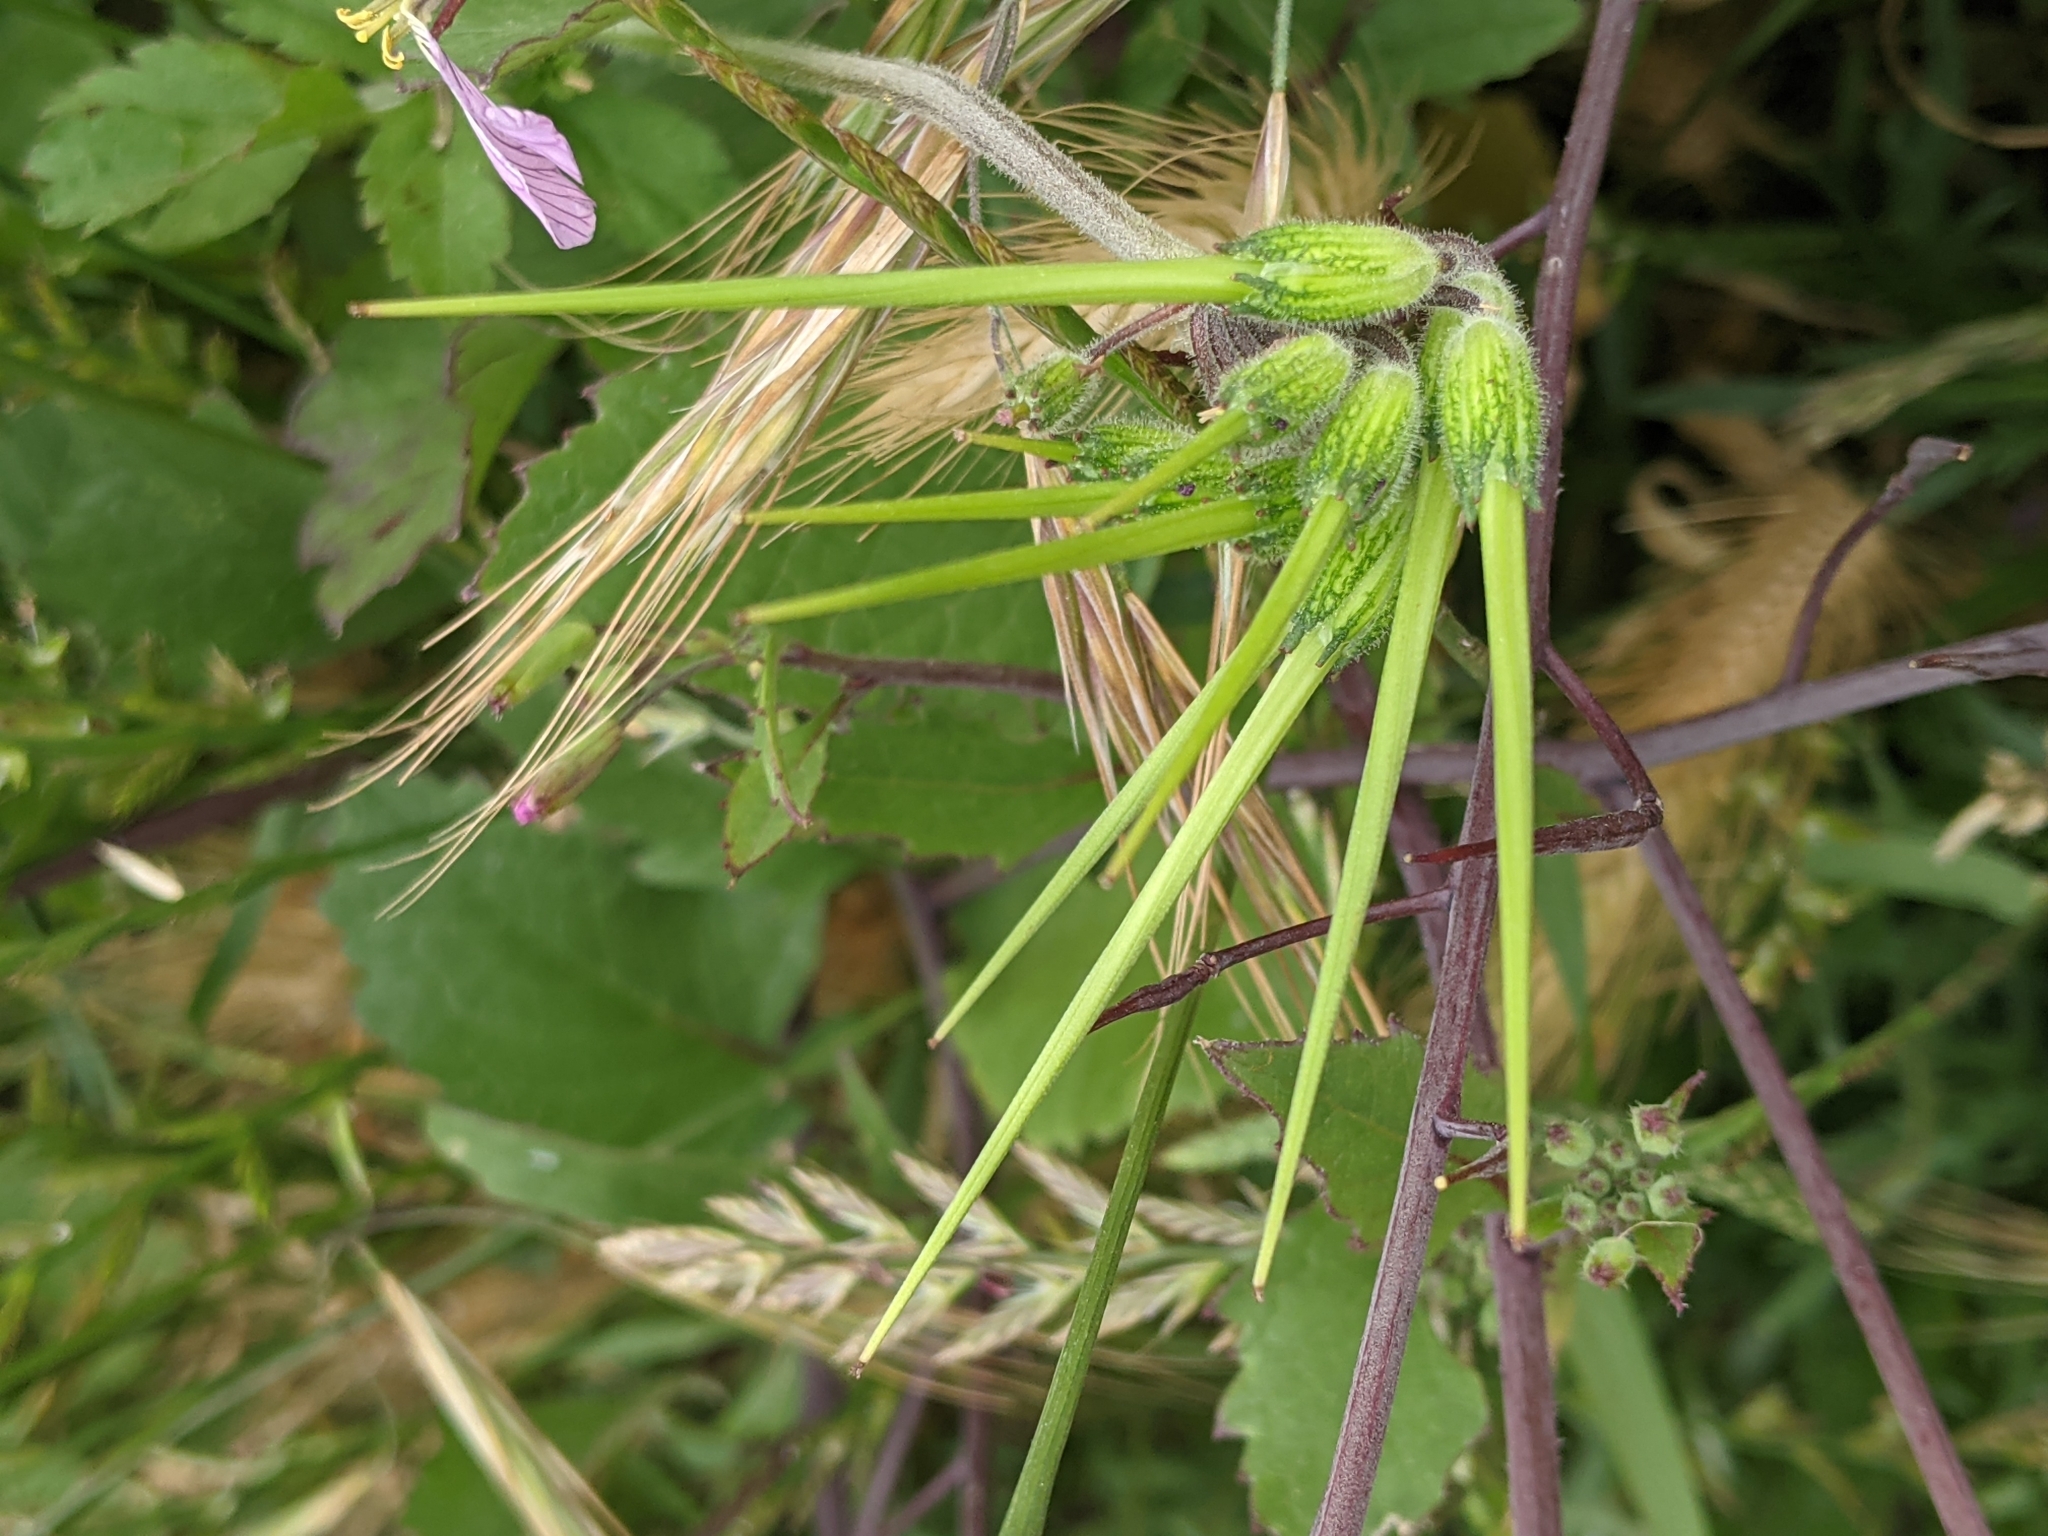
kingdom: Plantae
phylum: Tracheophyta
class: Magnoliopsida
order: Geraniales
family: Geraniaceae
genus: Erodium
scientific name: Erodium moschatum
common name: Musk stork's-bill
